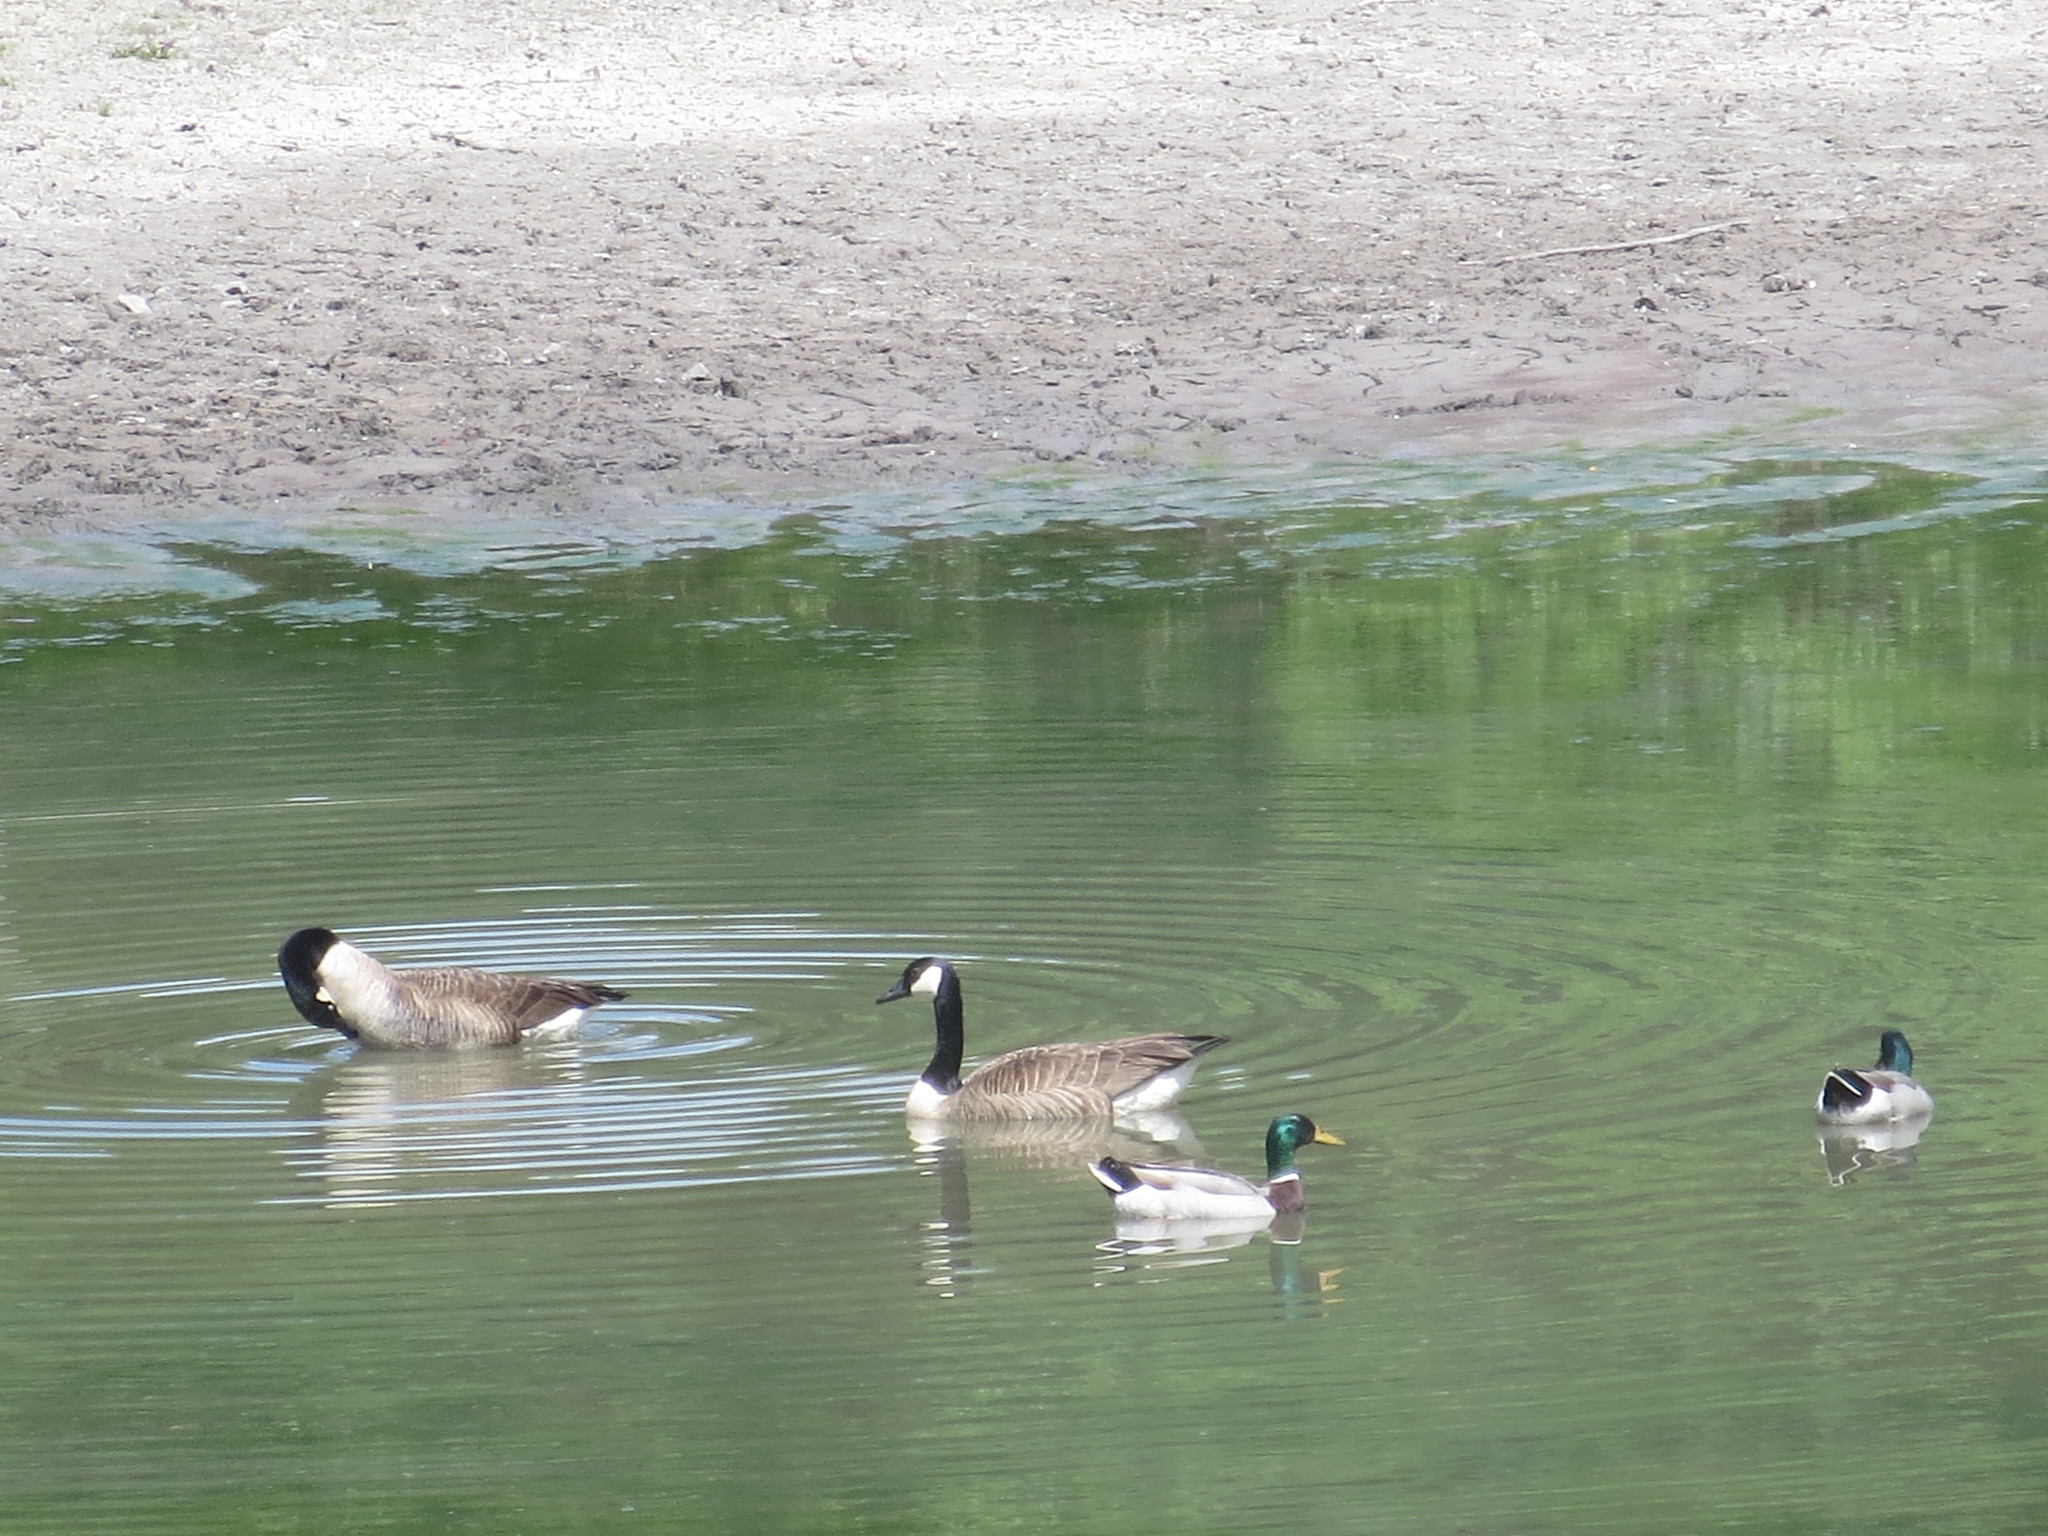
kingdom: Animalia
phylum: Chordata
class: Aves
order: Anseriformes
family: Anatidae
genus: Branta
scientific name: Branta canadensis
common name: Canada goose
